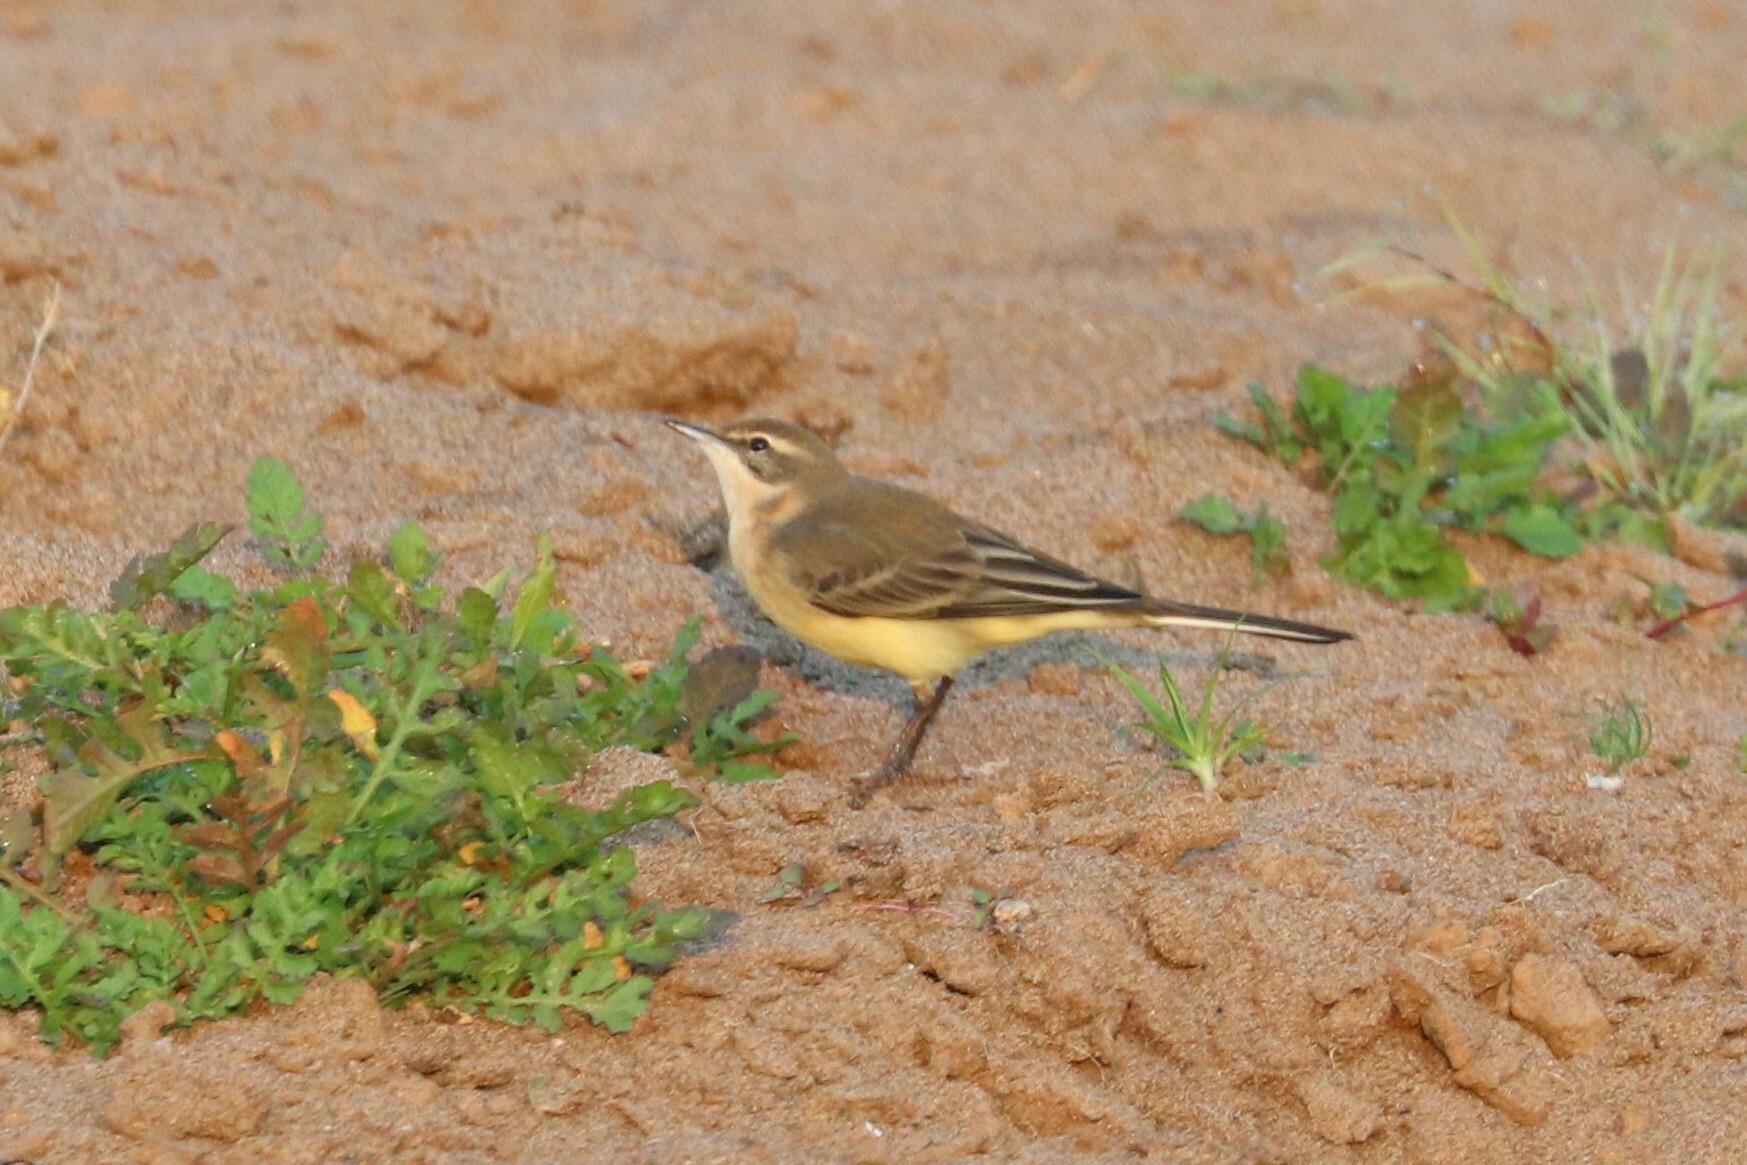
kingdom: Animalia
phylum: Chordata
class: Aves
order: Passeriformes
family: Motacillidae
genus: Motacilla
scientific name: Motacilla flava
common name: Western yellow wagtail
